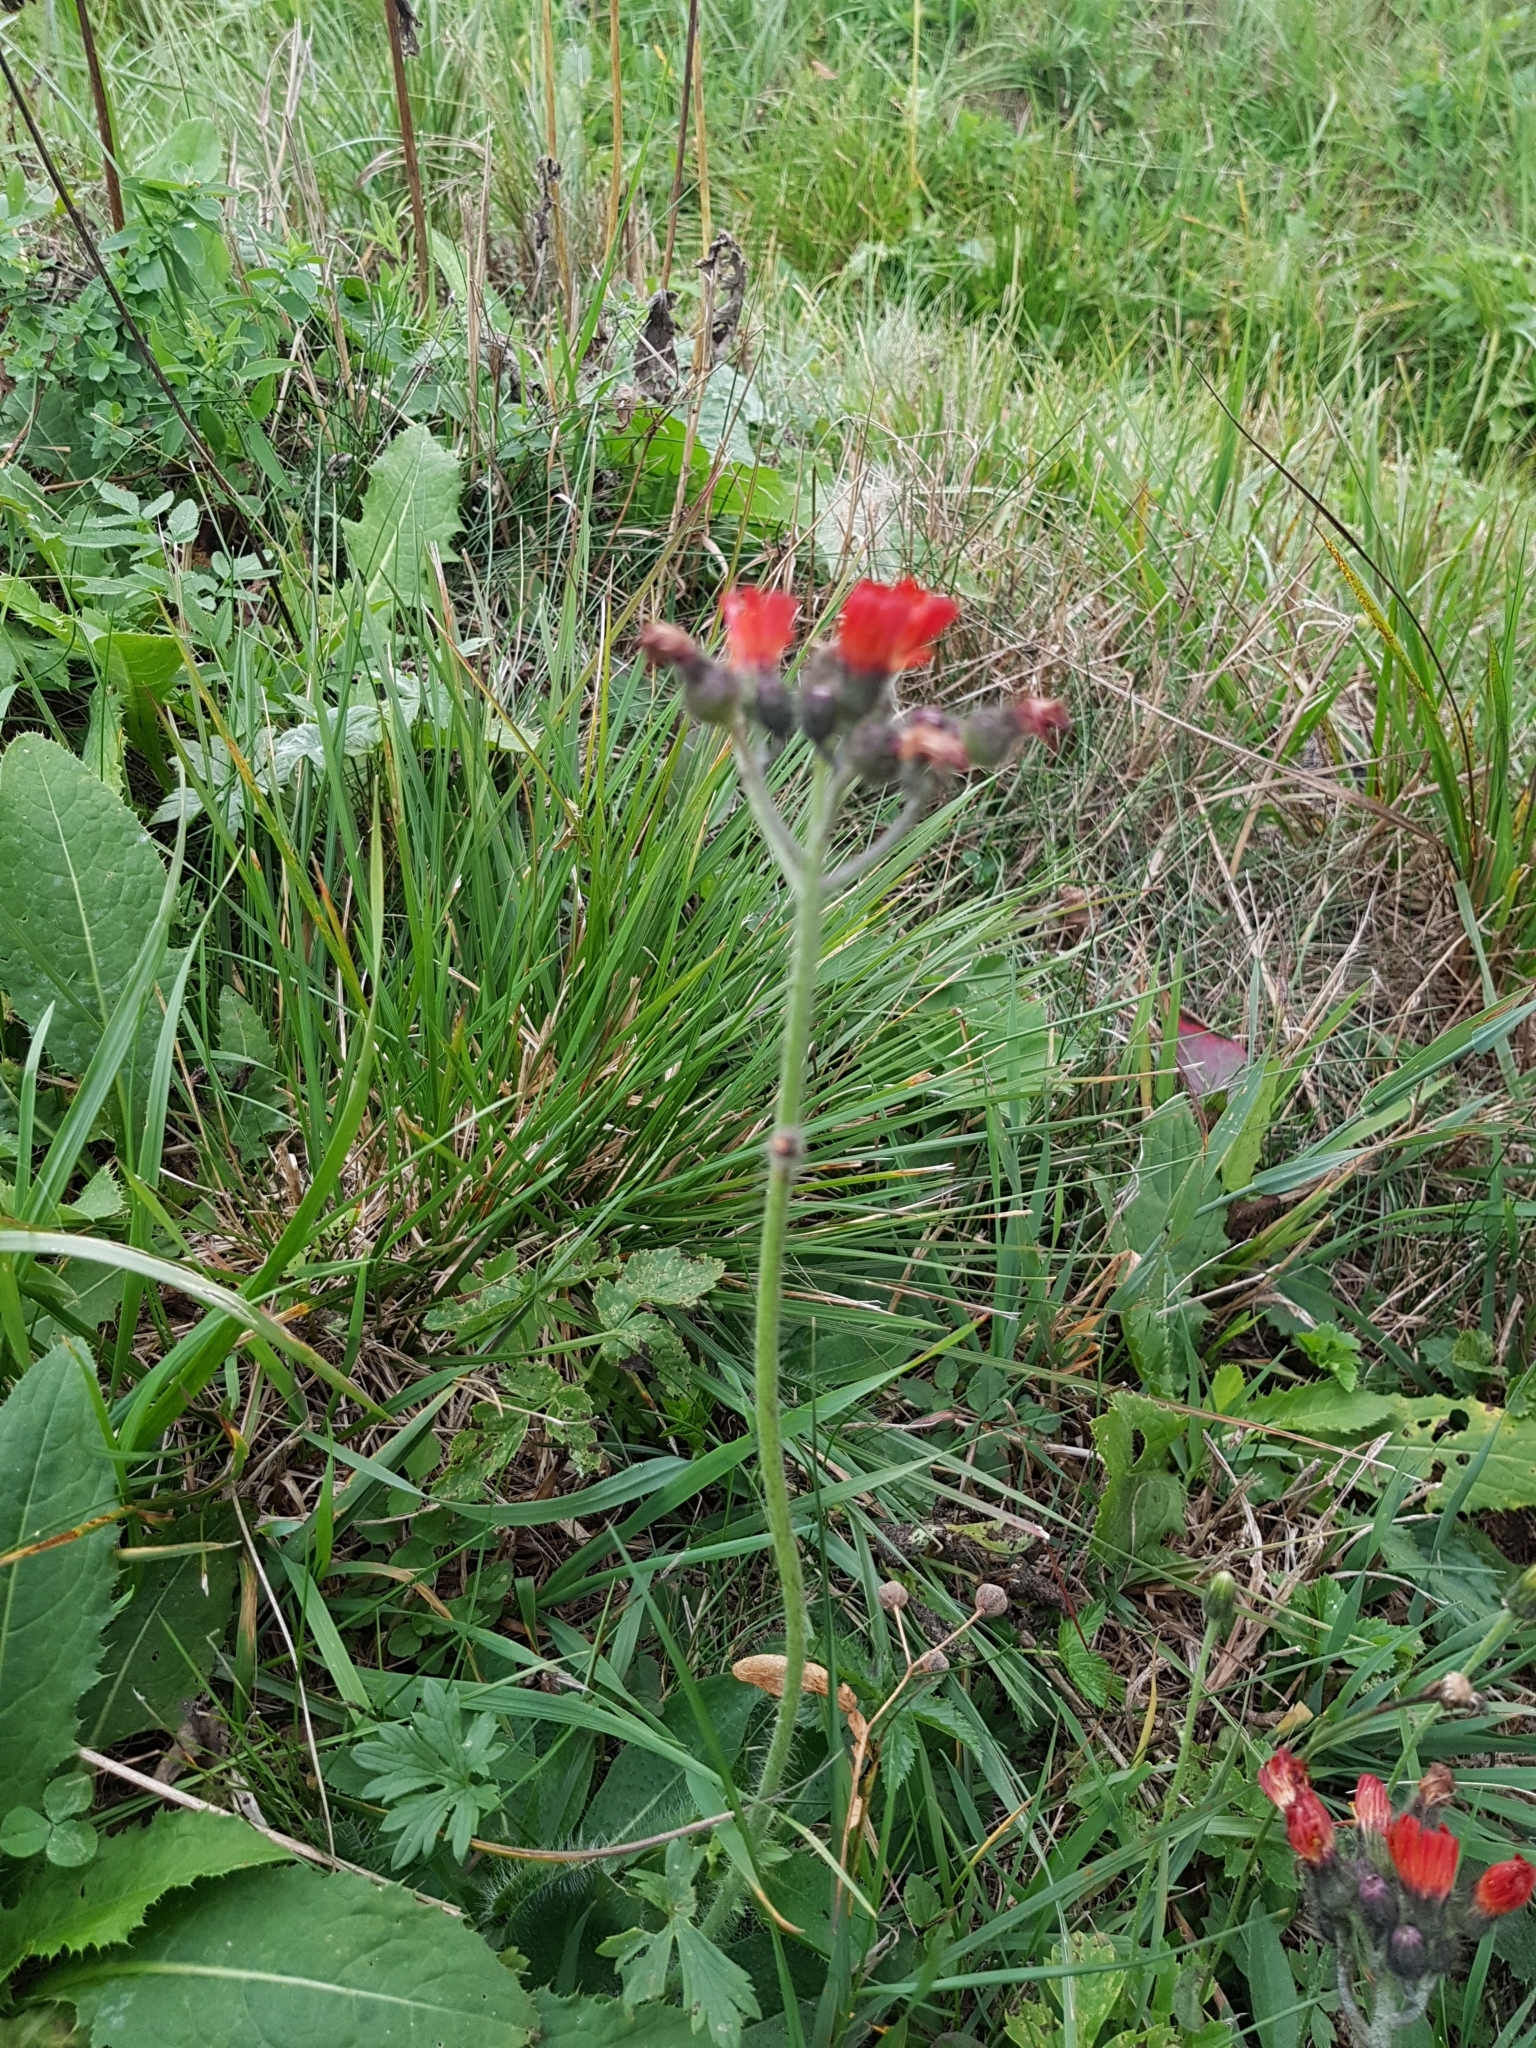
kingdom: Plantae
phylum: Tracheophyta
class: Magnoliopsida
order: Asterales
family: Asteraceae
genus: Pilosella
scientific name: Pilosella aurantiaca
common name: Fox-and-cubs
